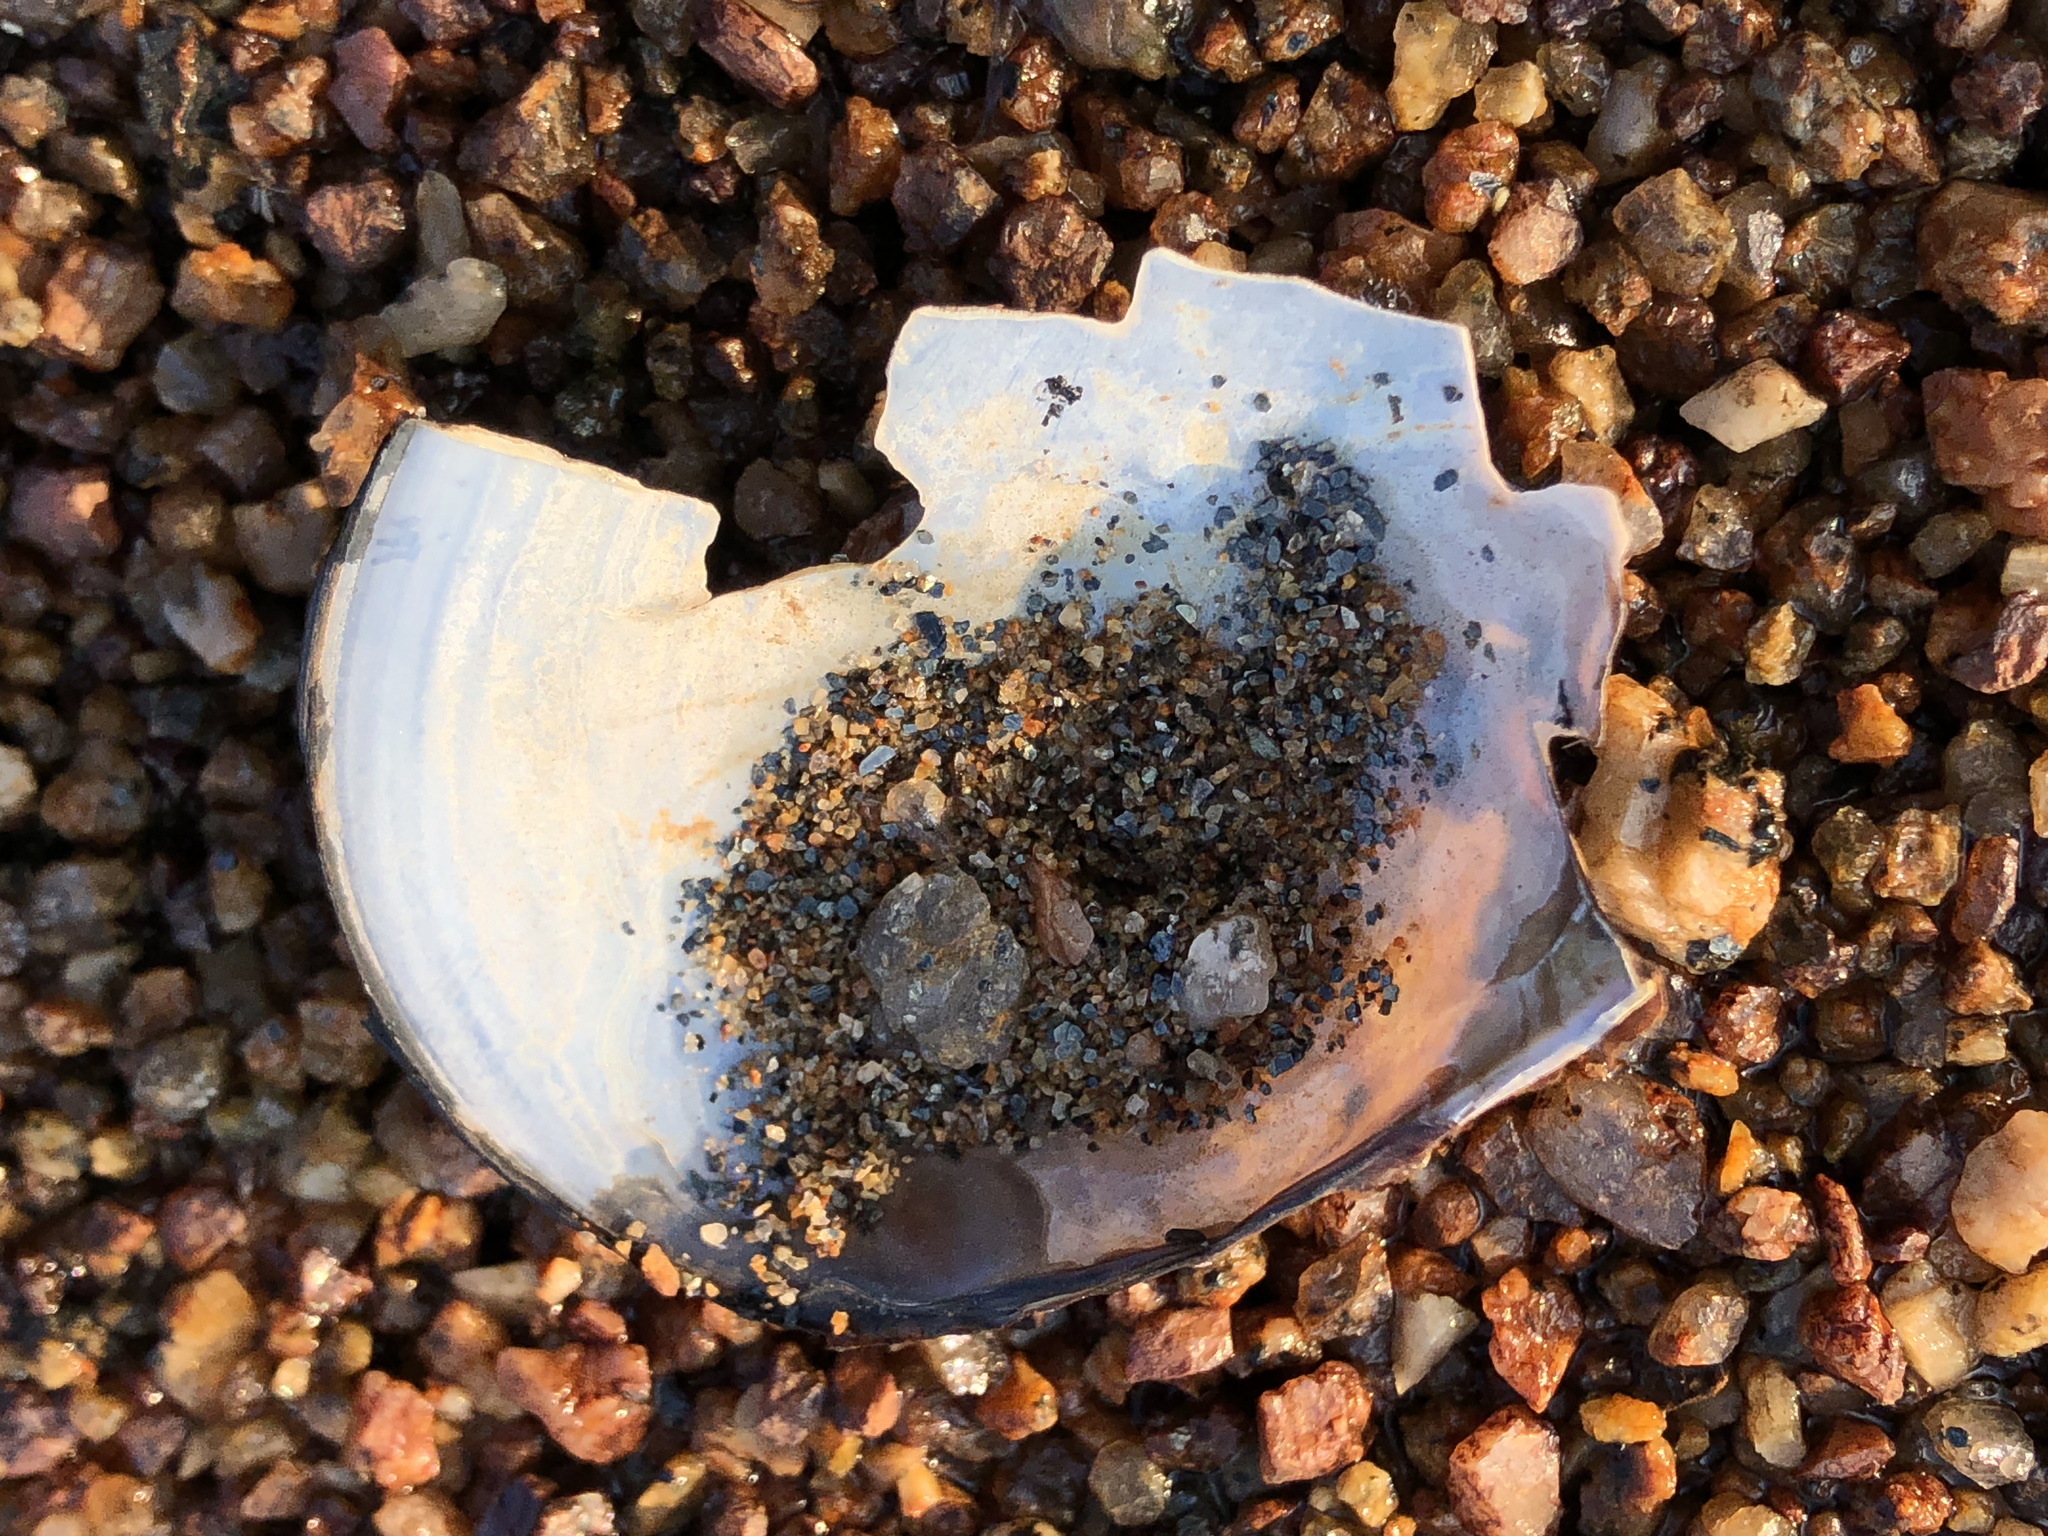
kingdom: Animalia
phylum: Mollusca
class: Bivalvia
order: Unionida
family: Unionidae
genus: Beringiana
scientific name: Beringiana beringiana
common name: Yukon floater
